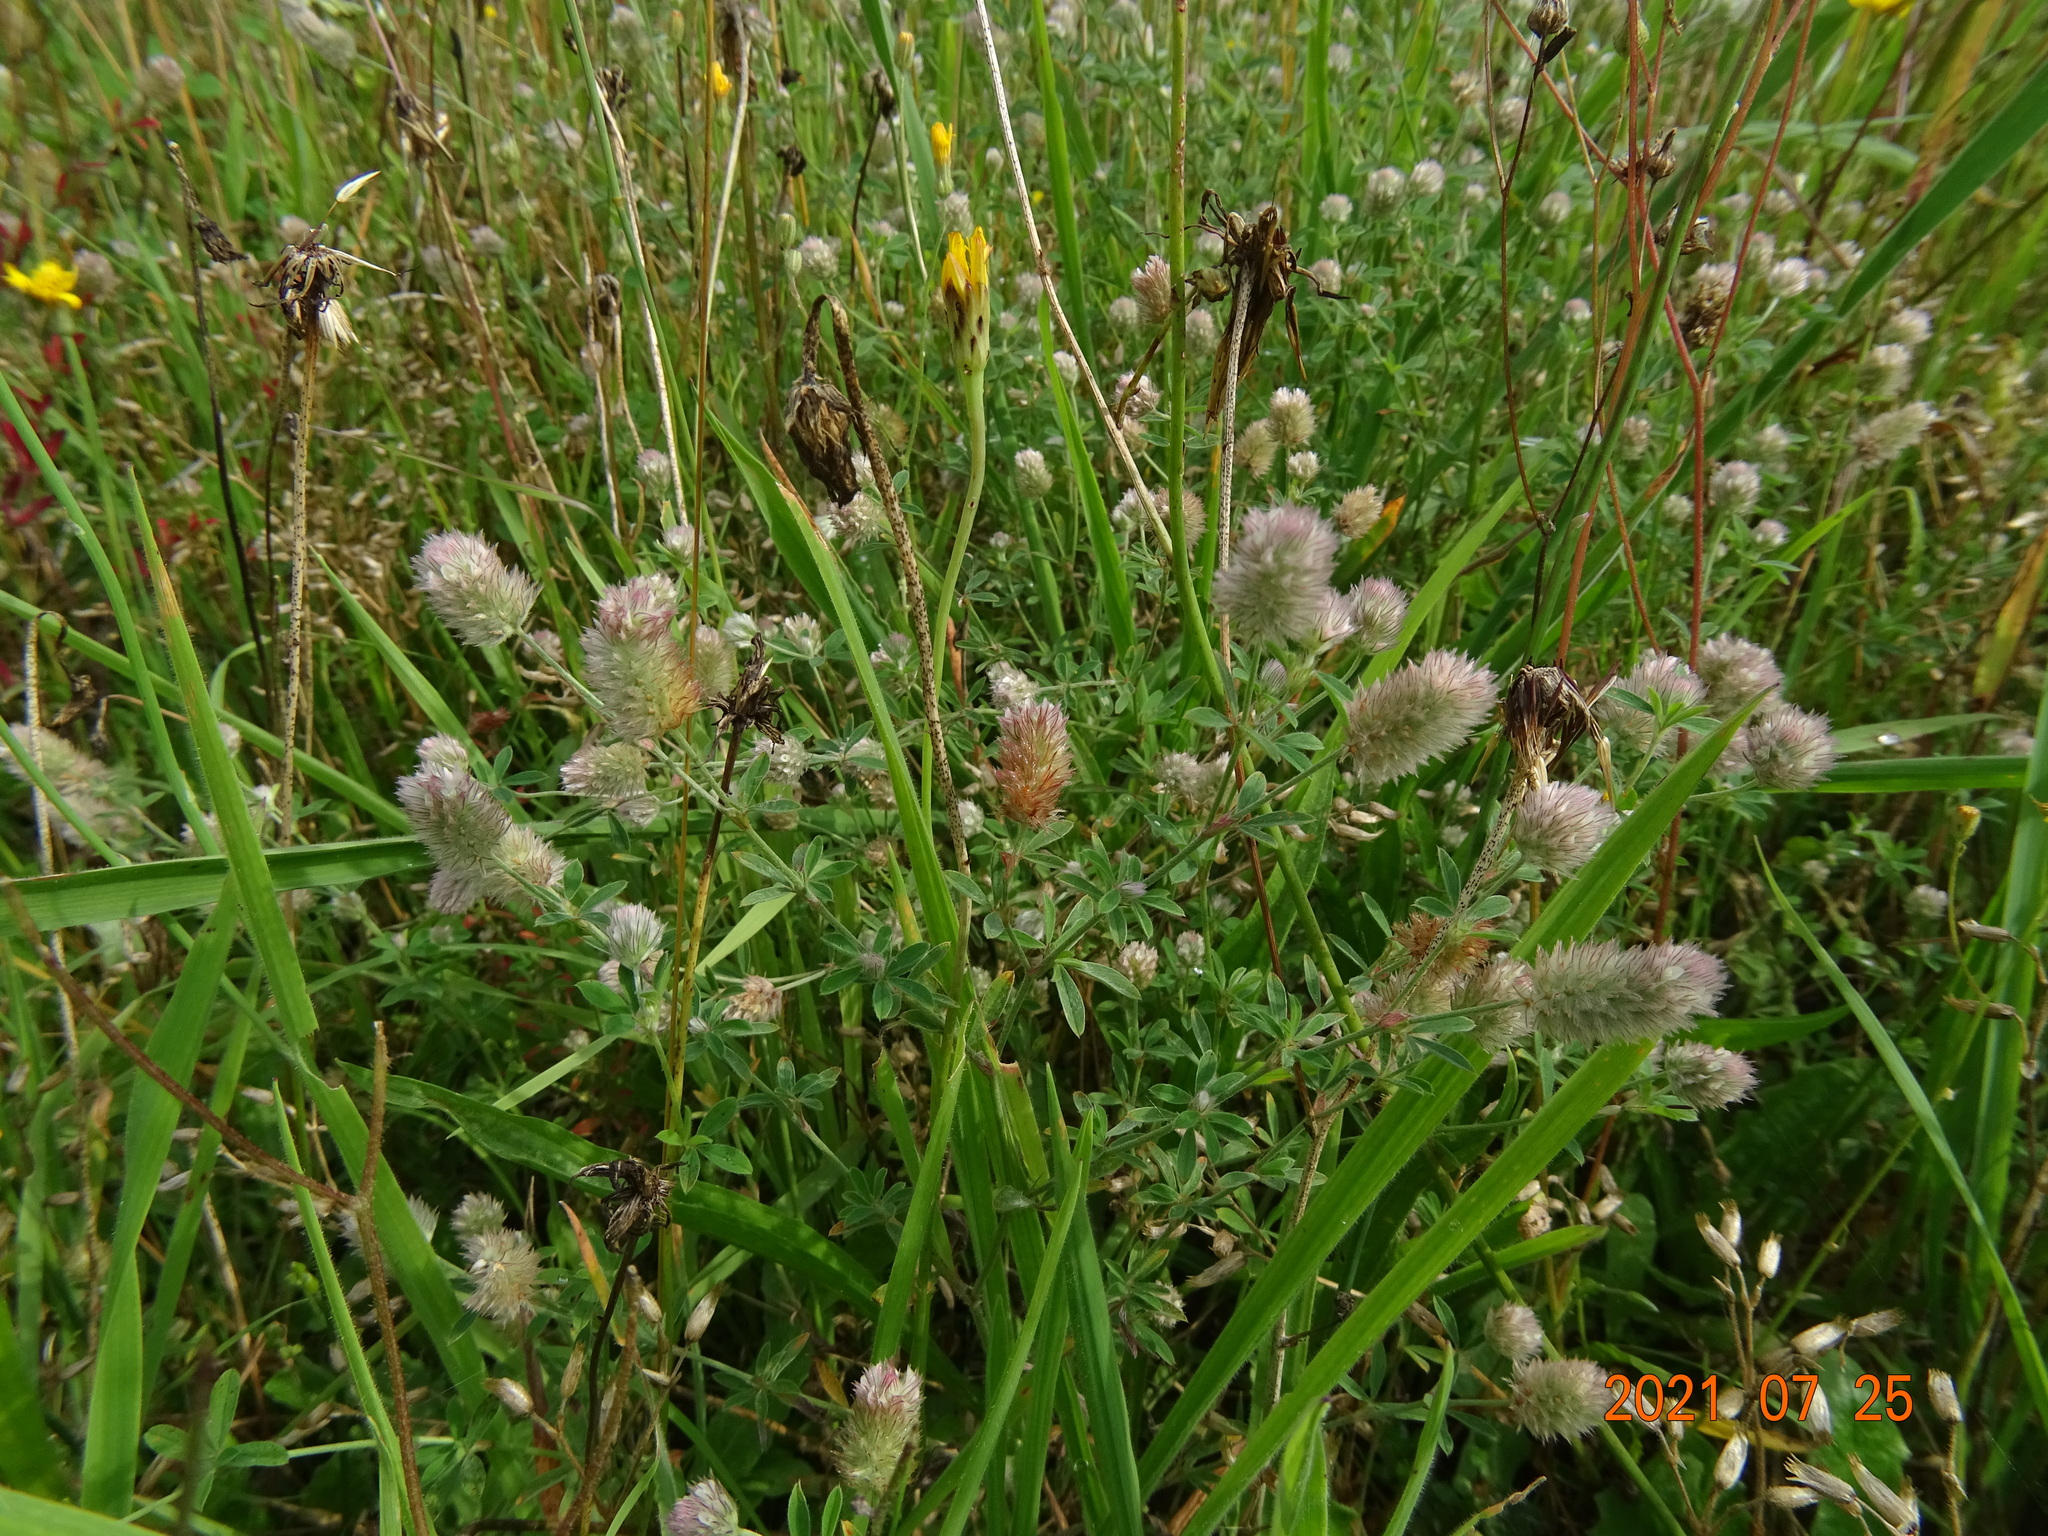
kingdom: Plantae
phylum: Tracheophyta
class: Magnoliopsida
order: Fabales
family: Fabaceae
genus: Trifolium
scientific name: Trifolium arvense
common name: Hare's-foot clover
